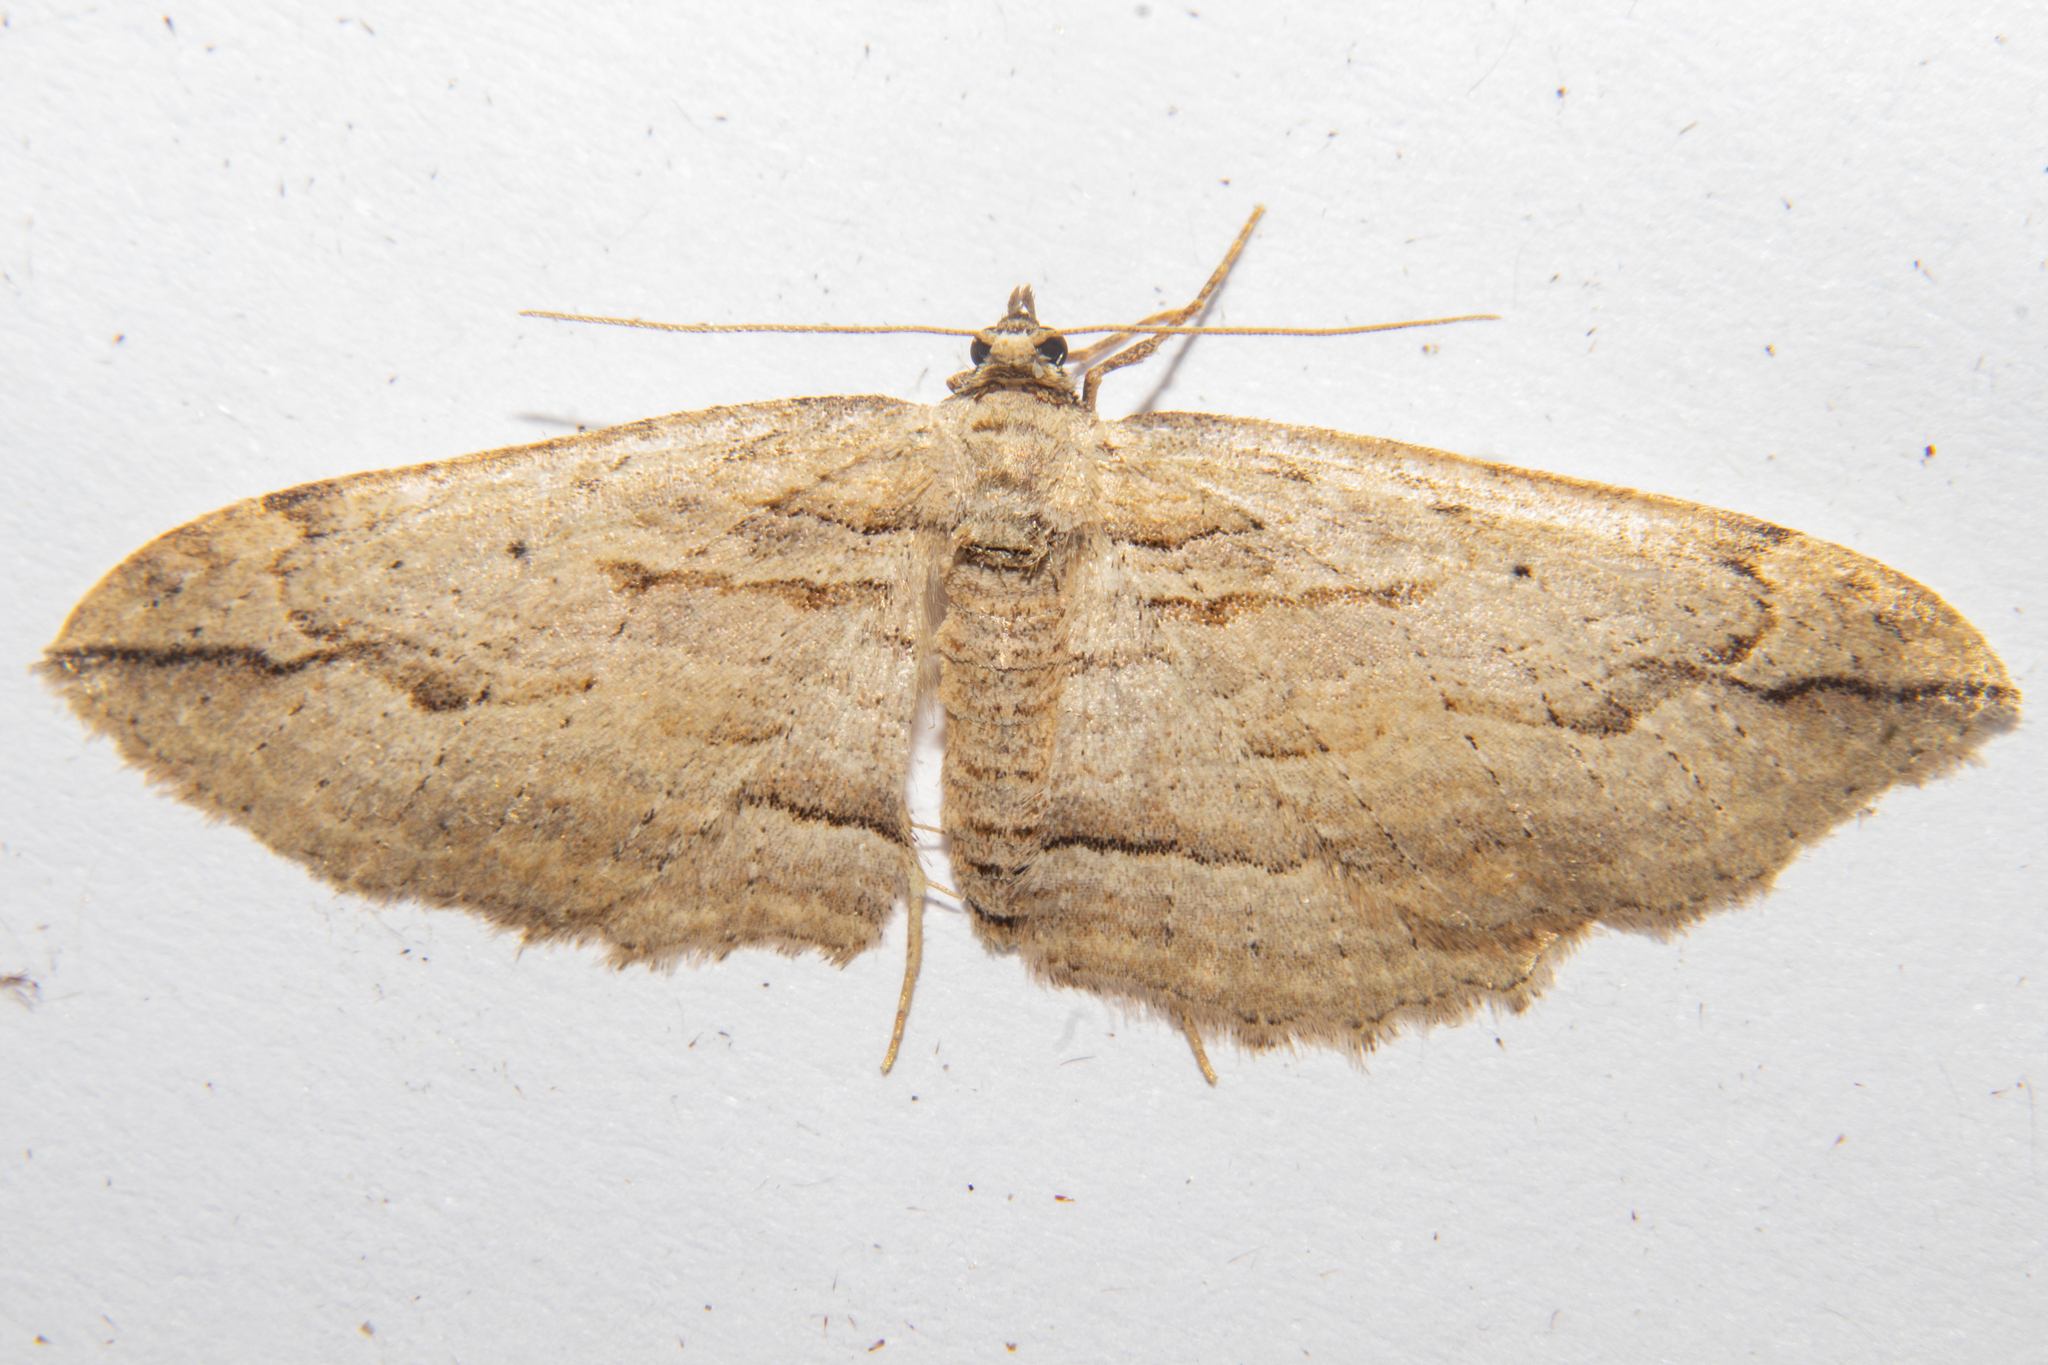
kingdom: Animalia
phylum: Arthropoda
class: Insecta
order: Lepidoptera
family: Geometridae
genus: Austrocidaria
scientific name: Austrocidaria gobiata
